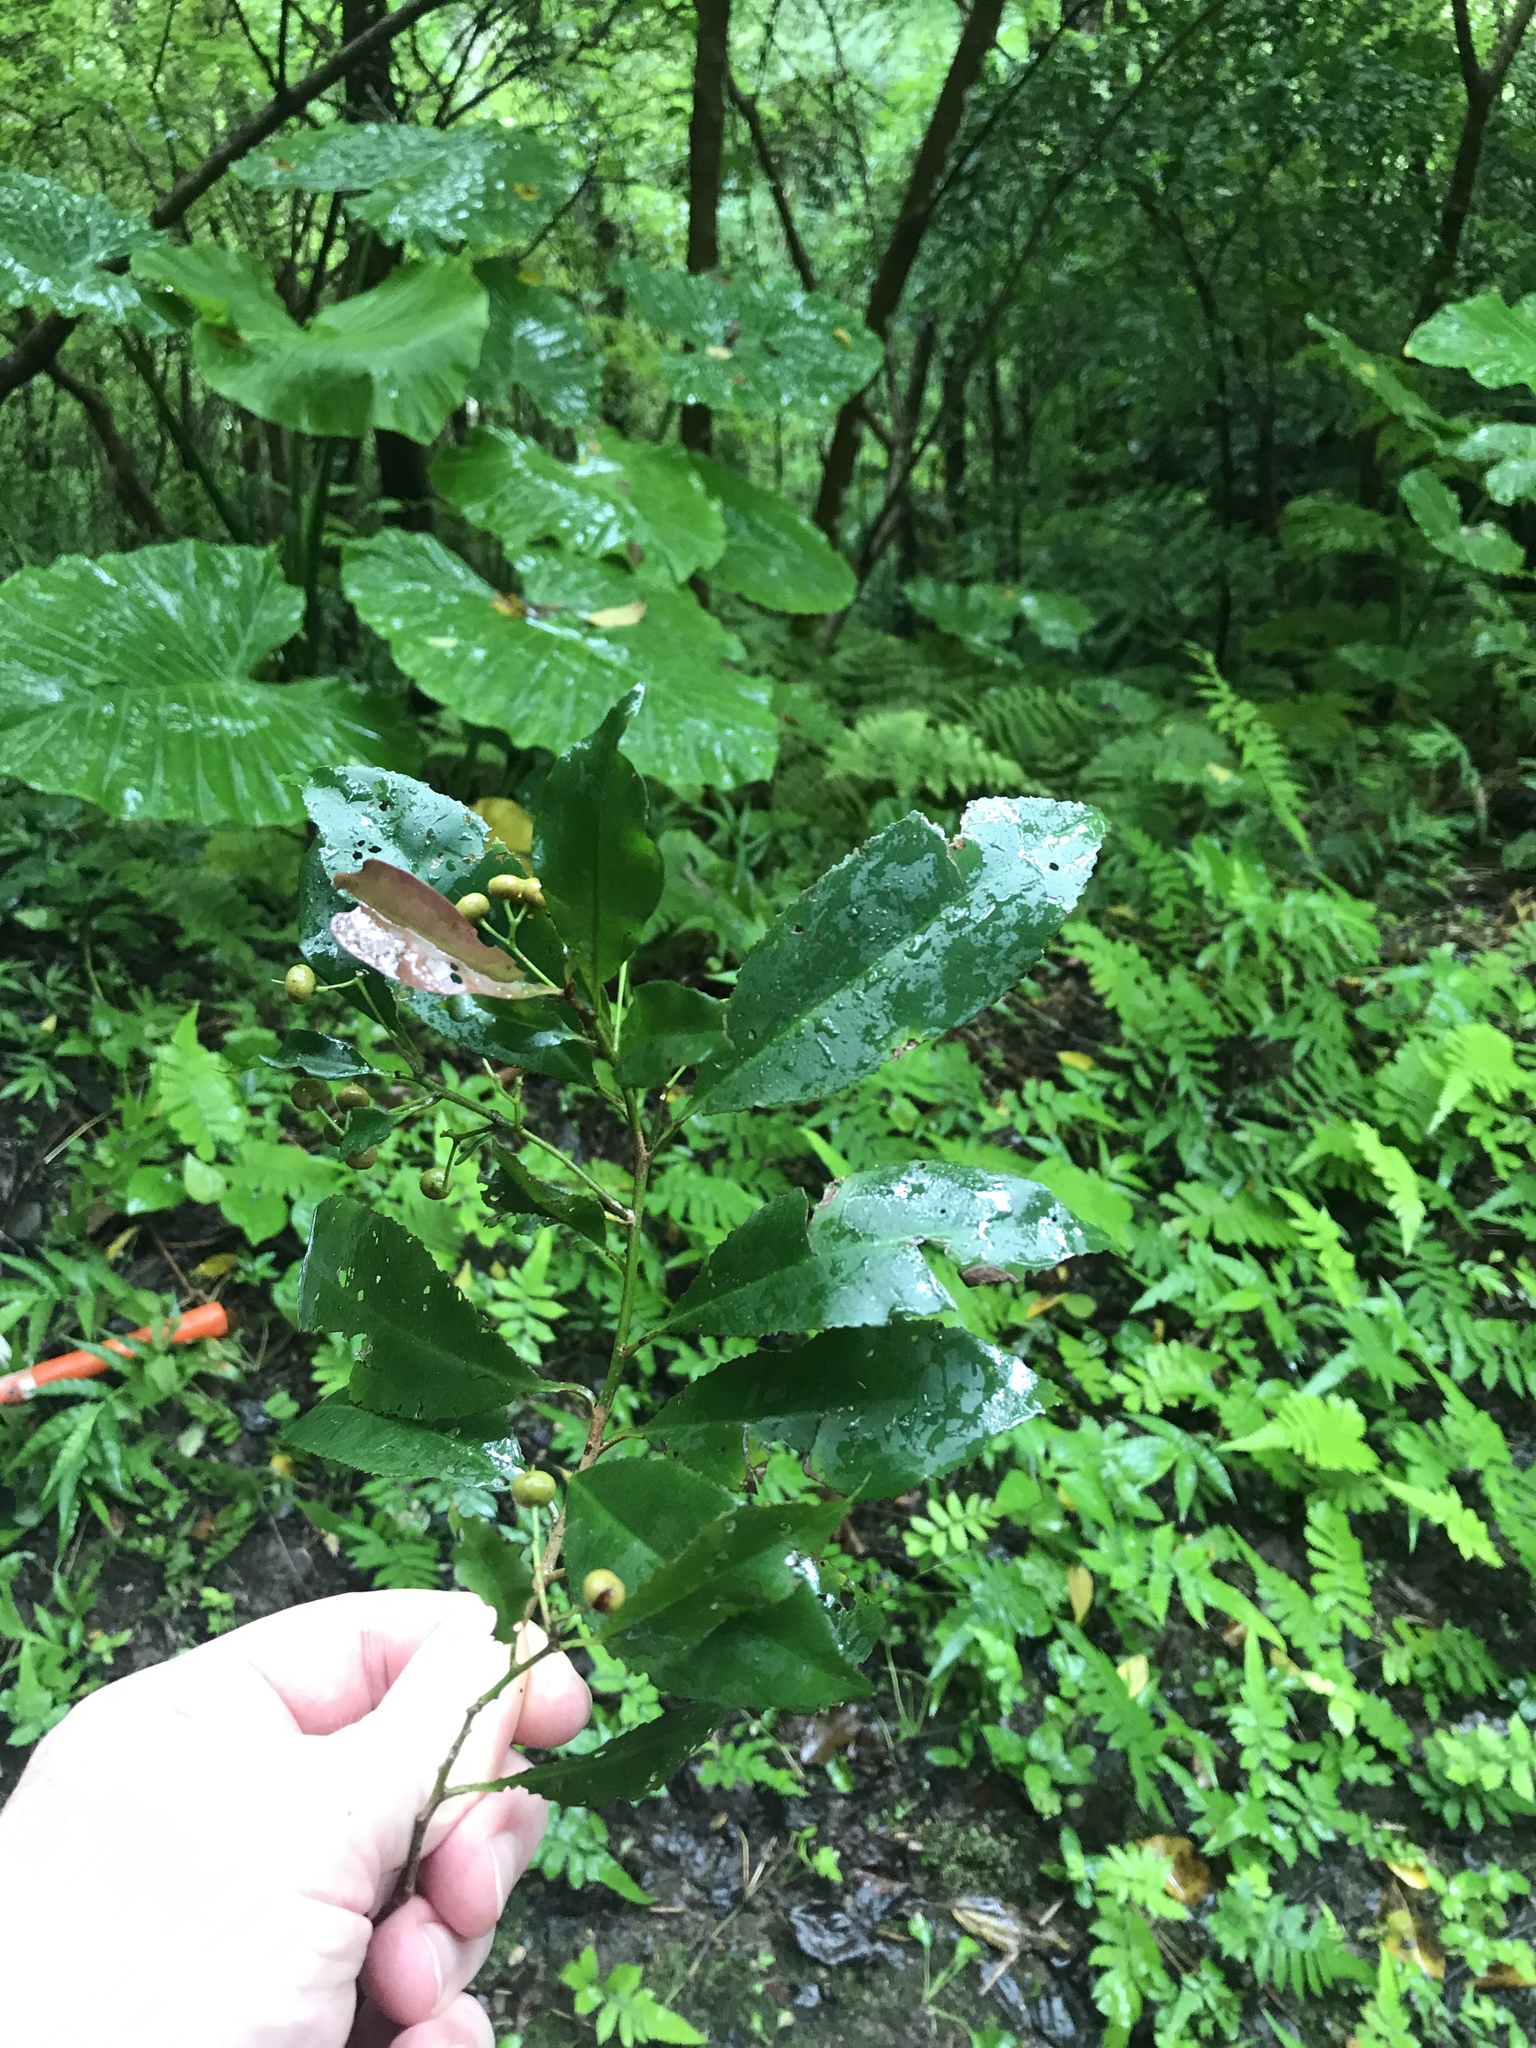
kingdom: Plantae
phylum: Tracheophyta
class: Magnoliopsida
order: Ericales
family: Primulaceae
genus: Ardisia
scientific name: Ardisia quinquegona
